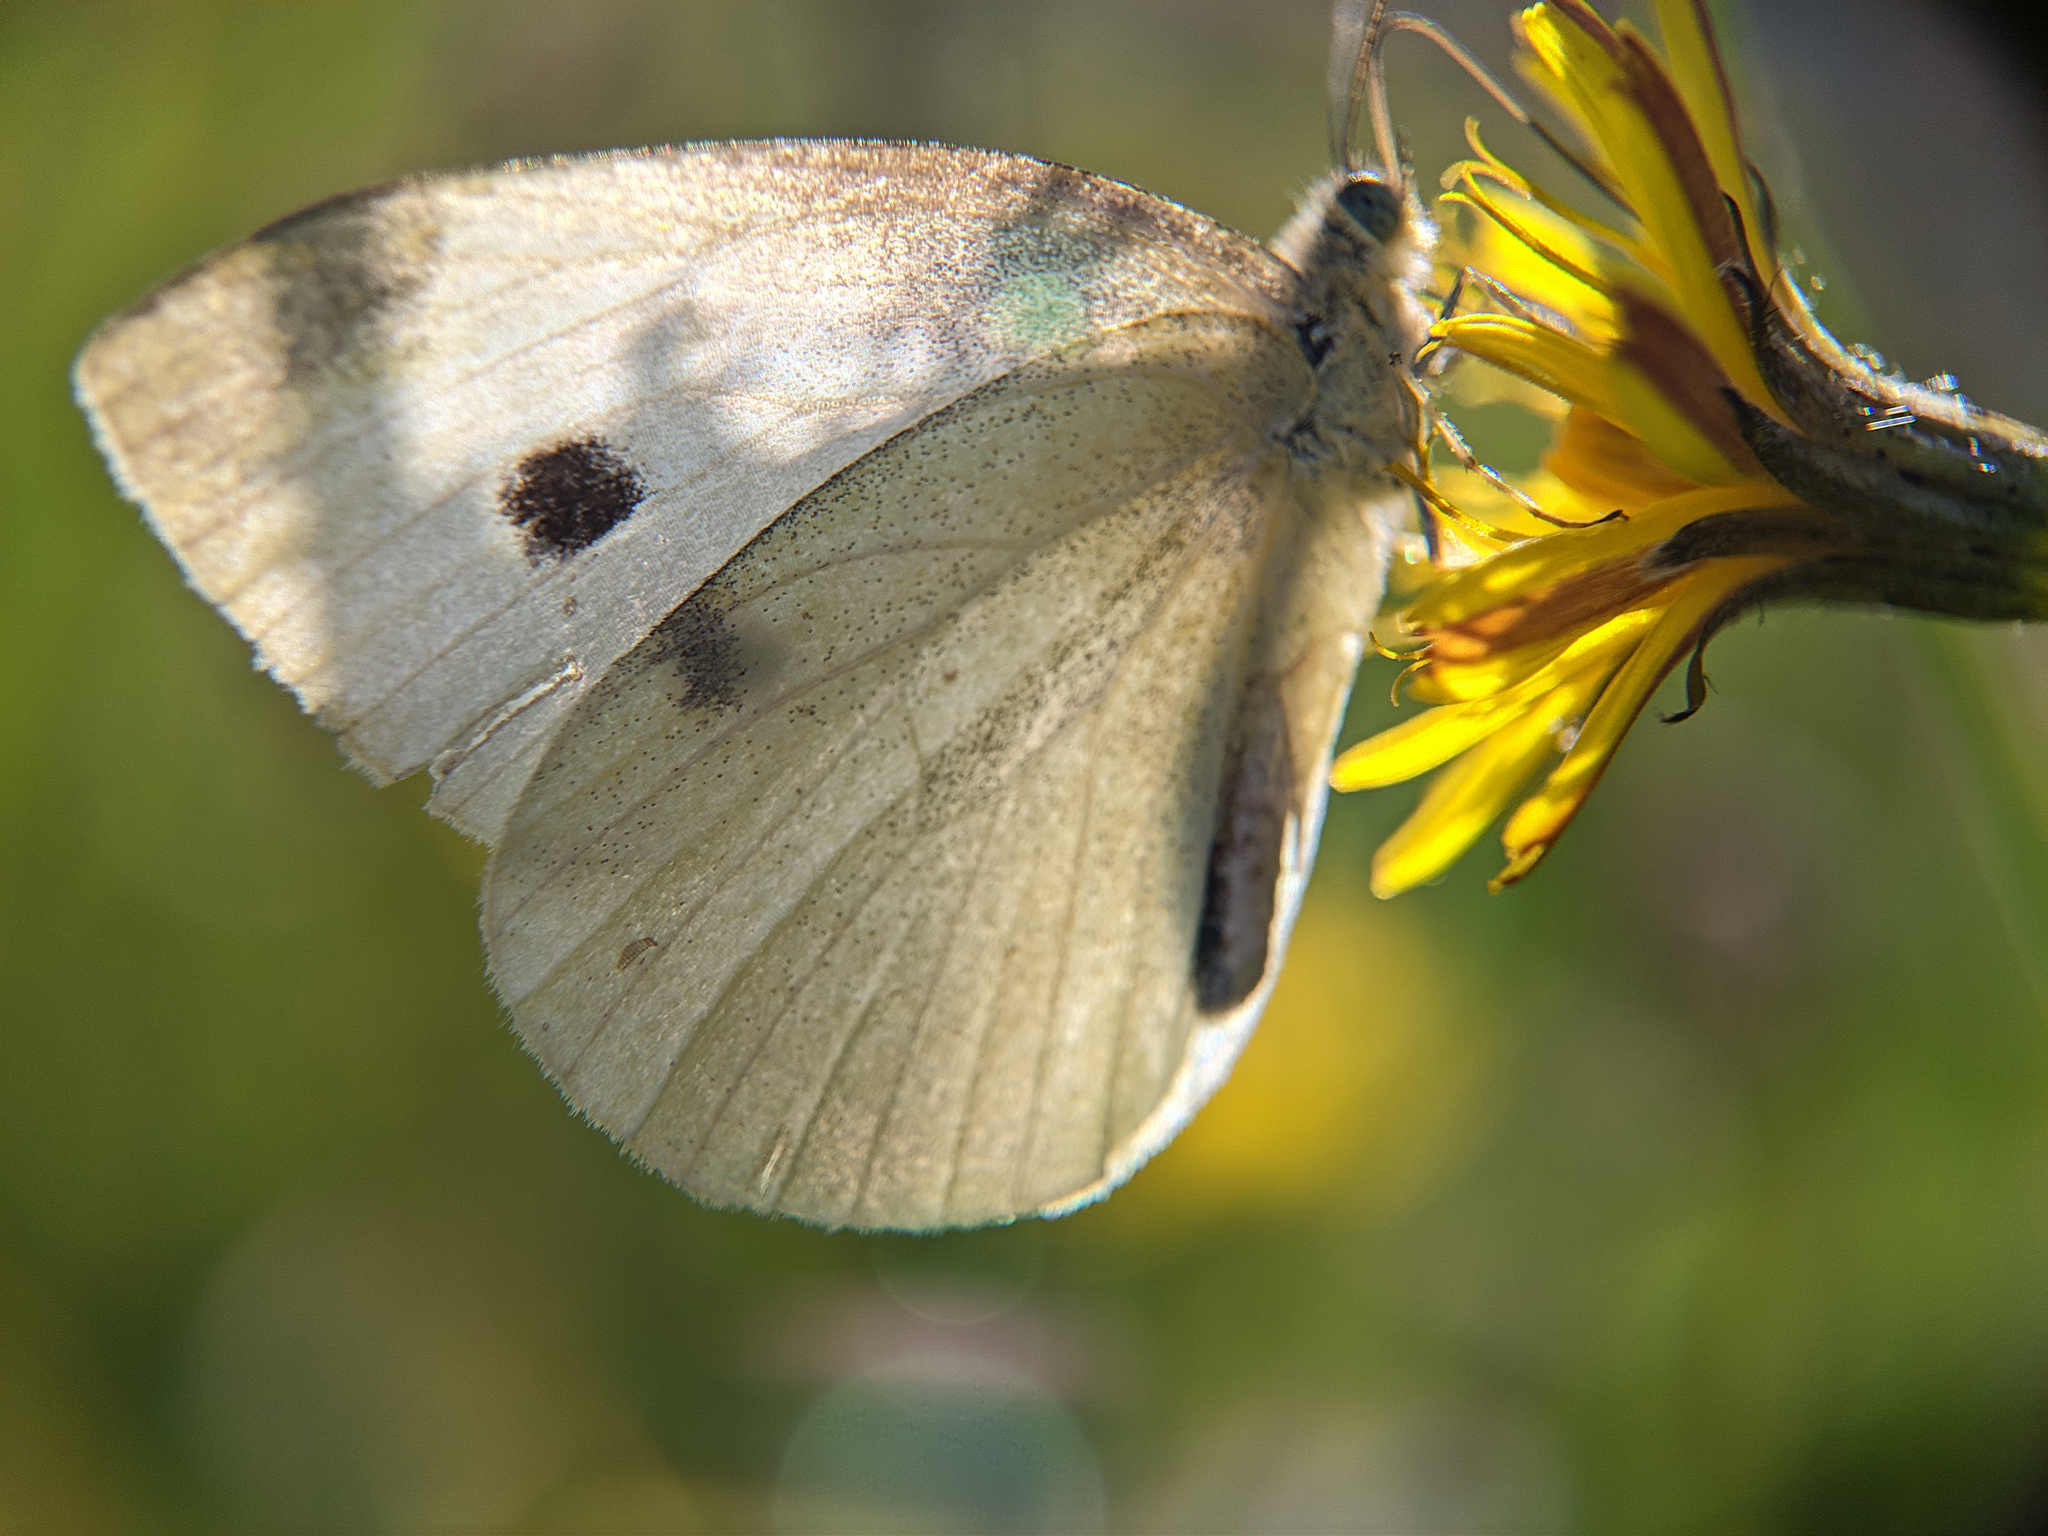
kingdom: Animalia
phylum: Arthropoda
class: Insecta
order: Lepidoptera
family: Pieridae
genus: Pieris
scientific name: Pieris rapae
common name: Small white
